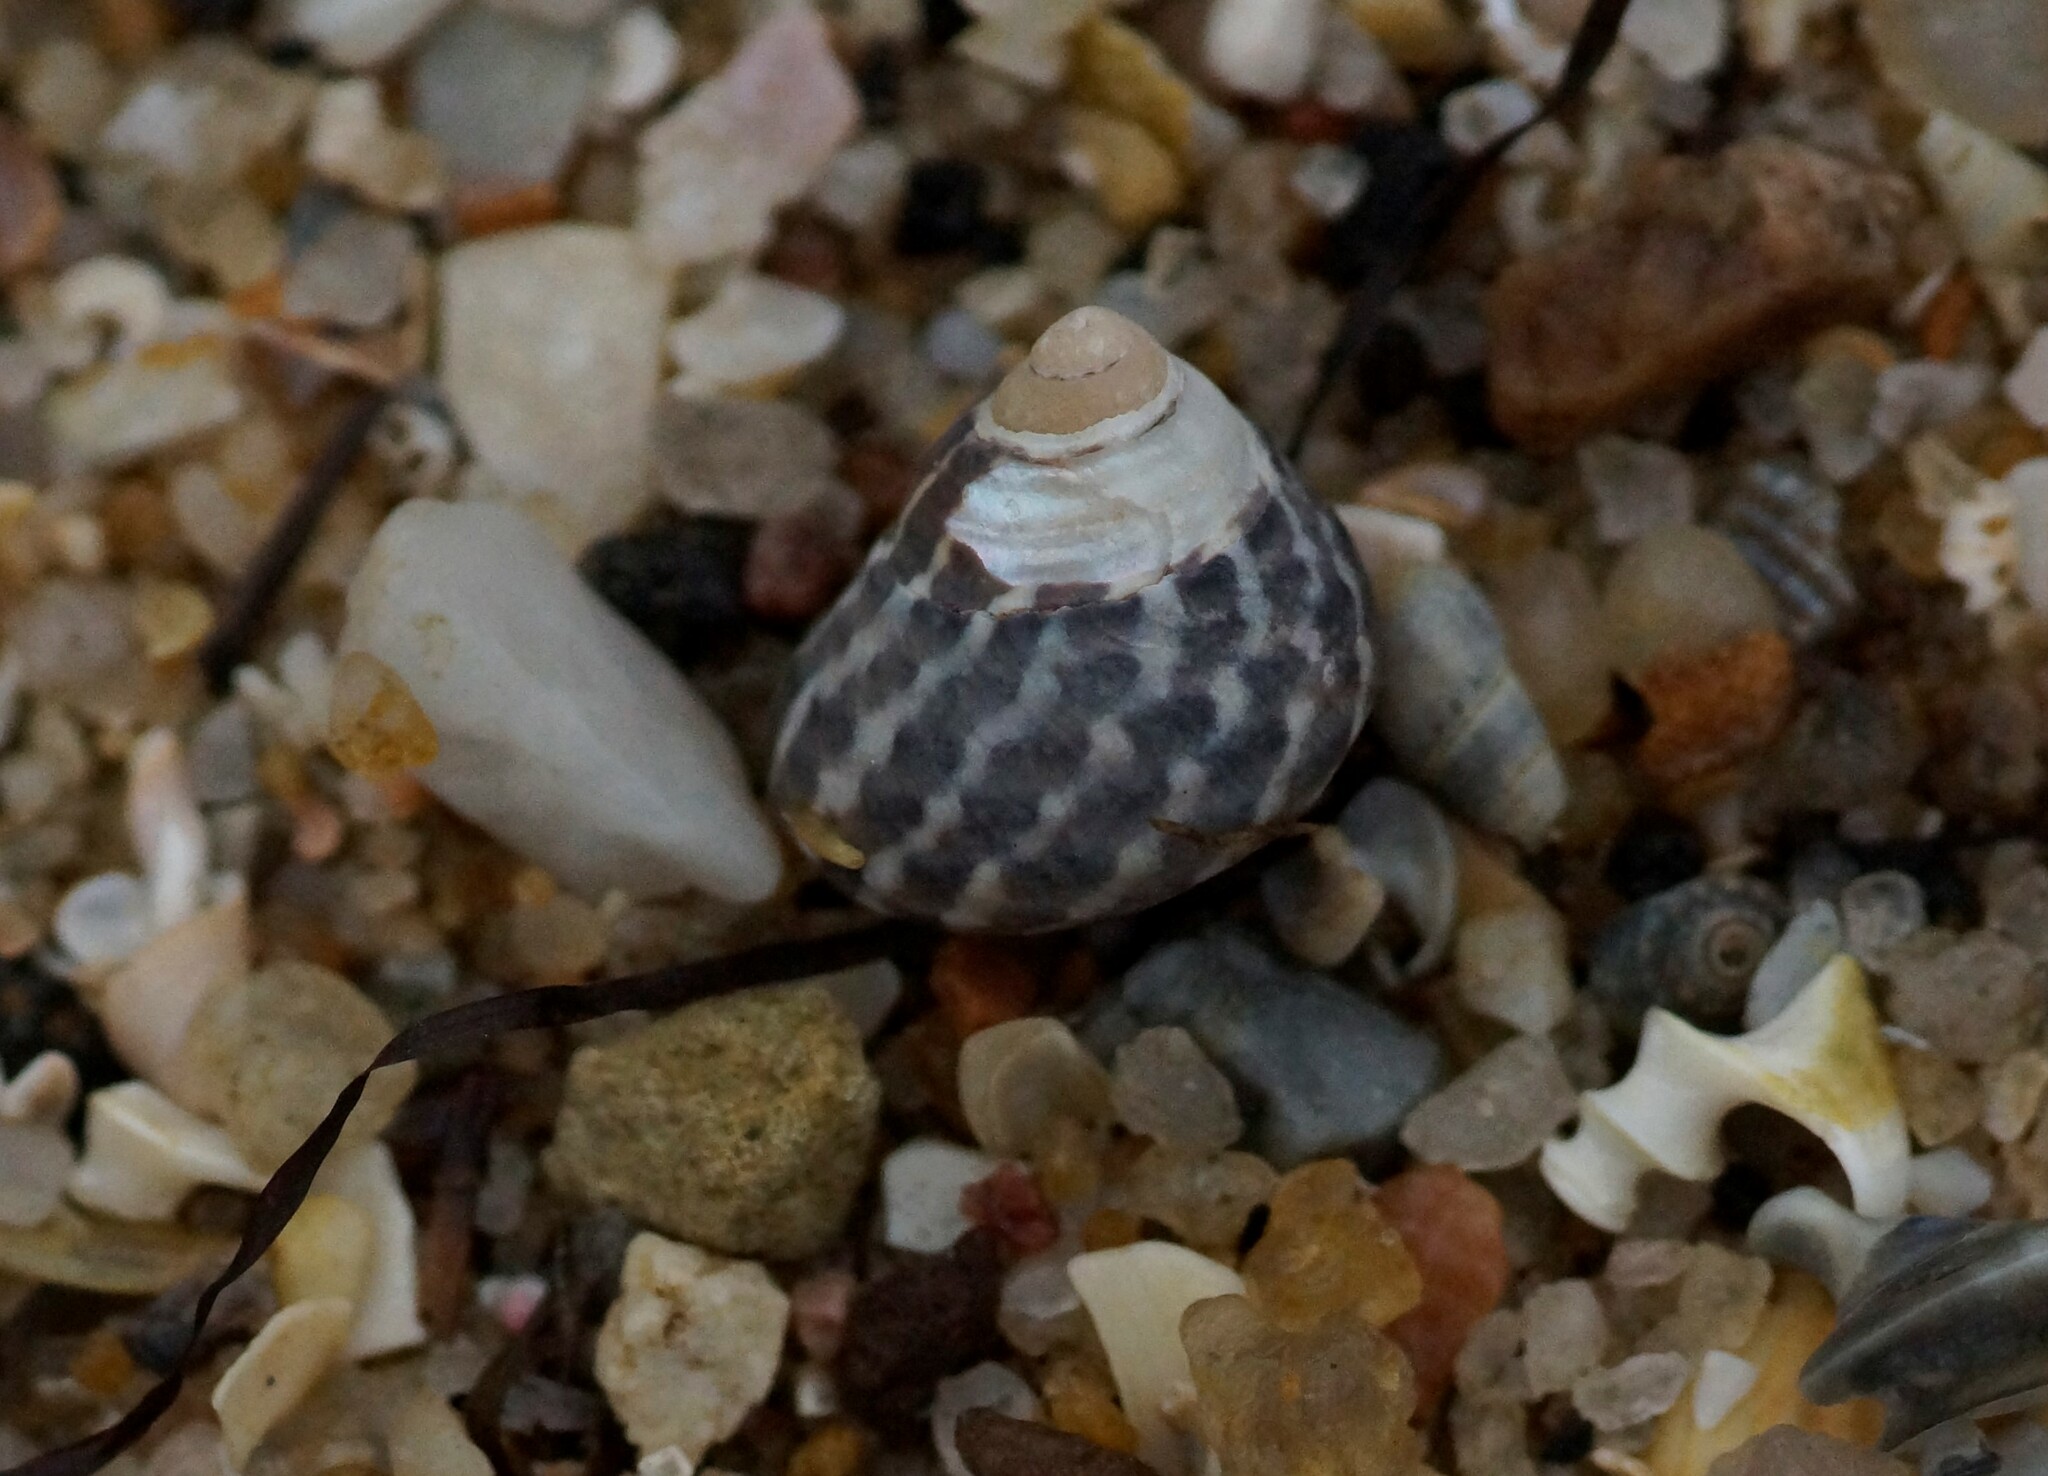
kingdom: Animalia
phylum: Mollusca
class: Gastropoda
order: Trochida
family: Trochidae
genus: Austrocochlea
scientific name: Austrocochlea porcata
